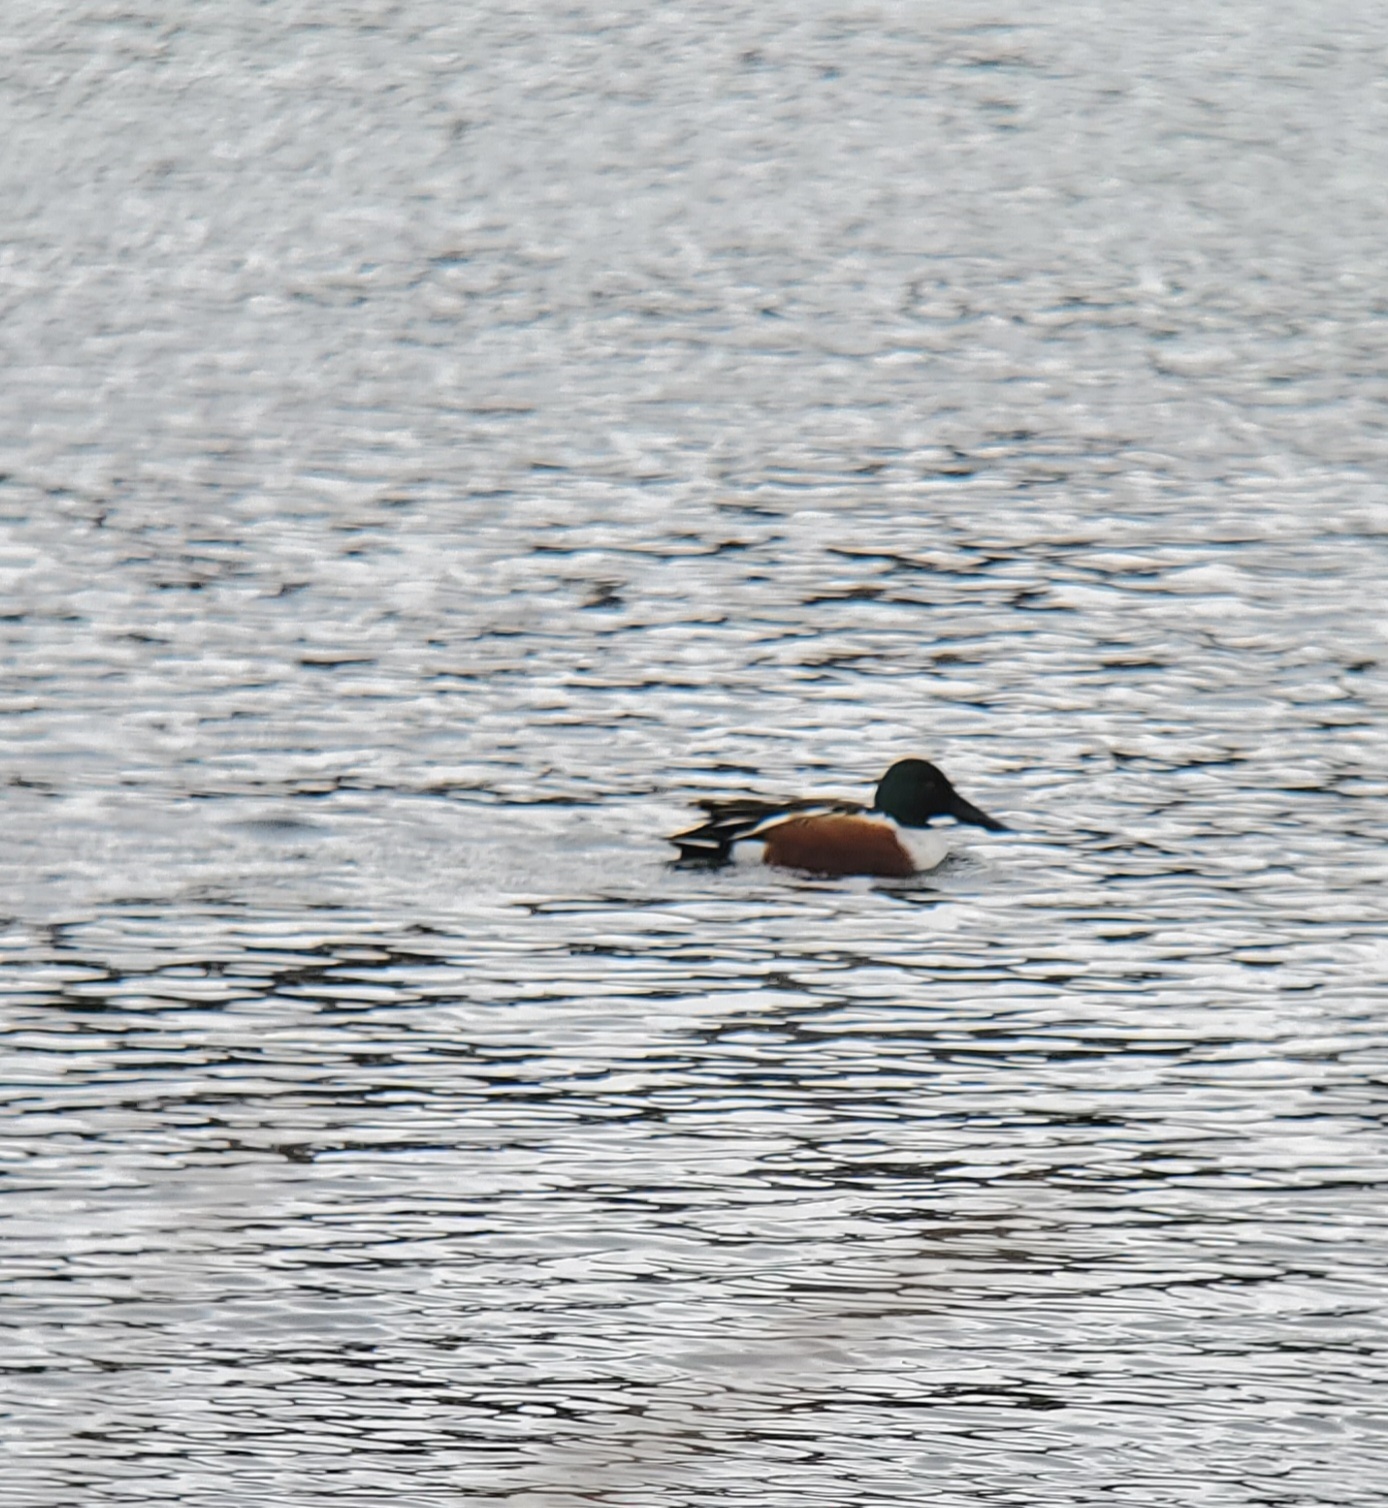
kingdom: Animalia
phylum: Chordata
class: Aves
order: Anseriformes
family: Anatidae
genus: Spatula
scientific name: Spatula clypeata
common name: Northern shoveler
